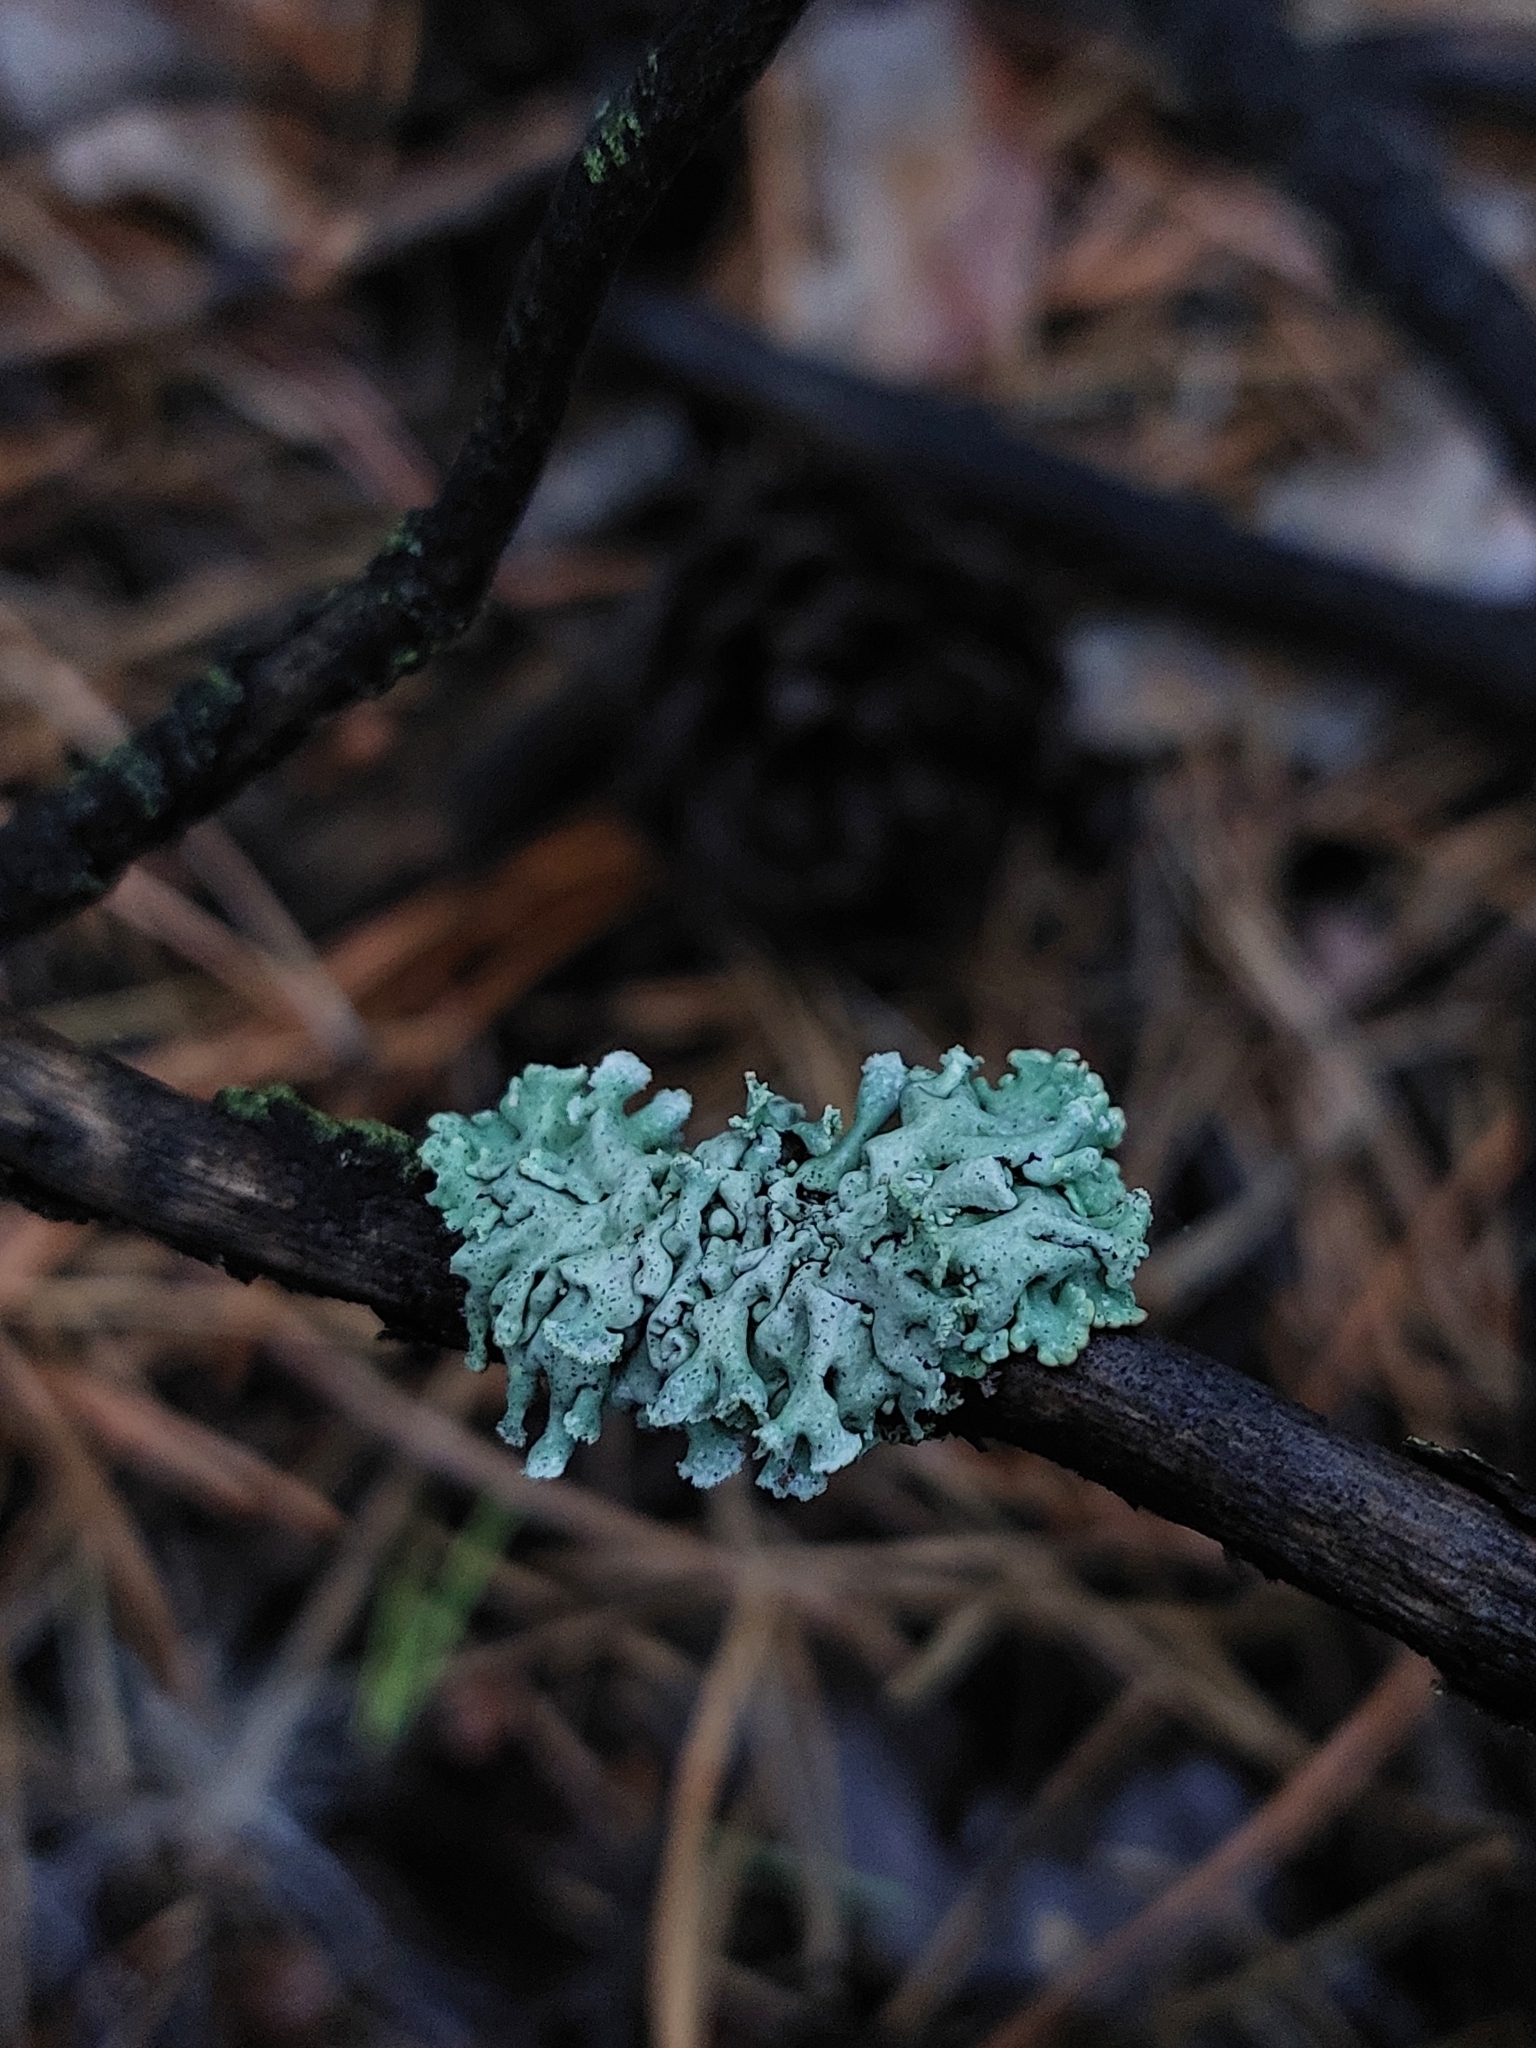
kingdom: Fungi
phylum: Ascomycota
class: Lecanoromycetes
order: Lecanorales
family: Parmeliaceae
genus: Hypogymnia
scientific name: Hypogymnia physodes
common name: Dark crottle
